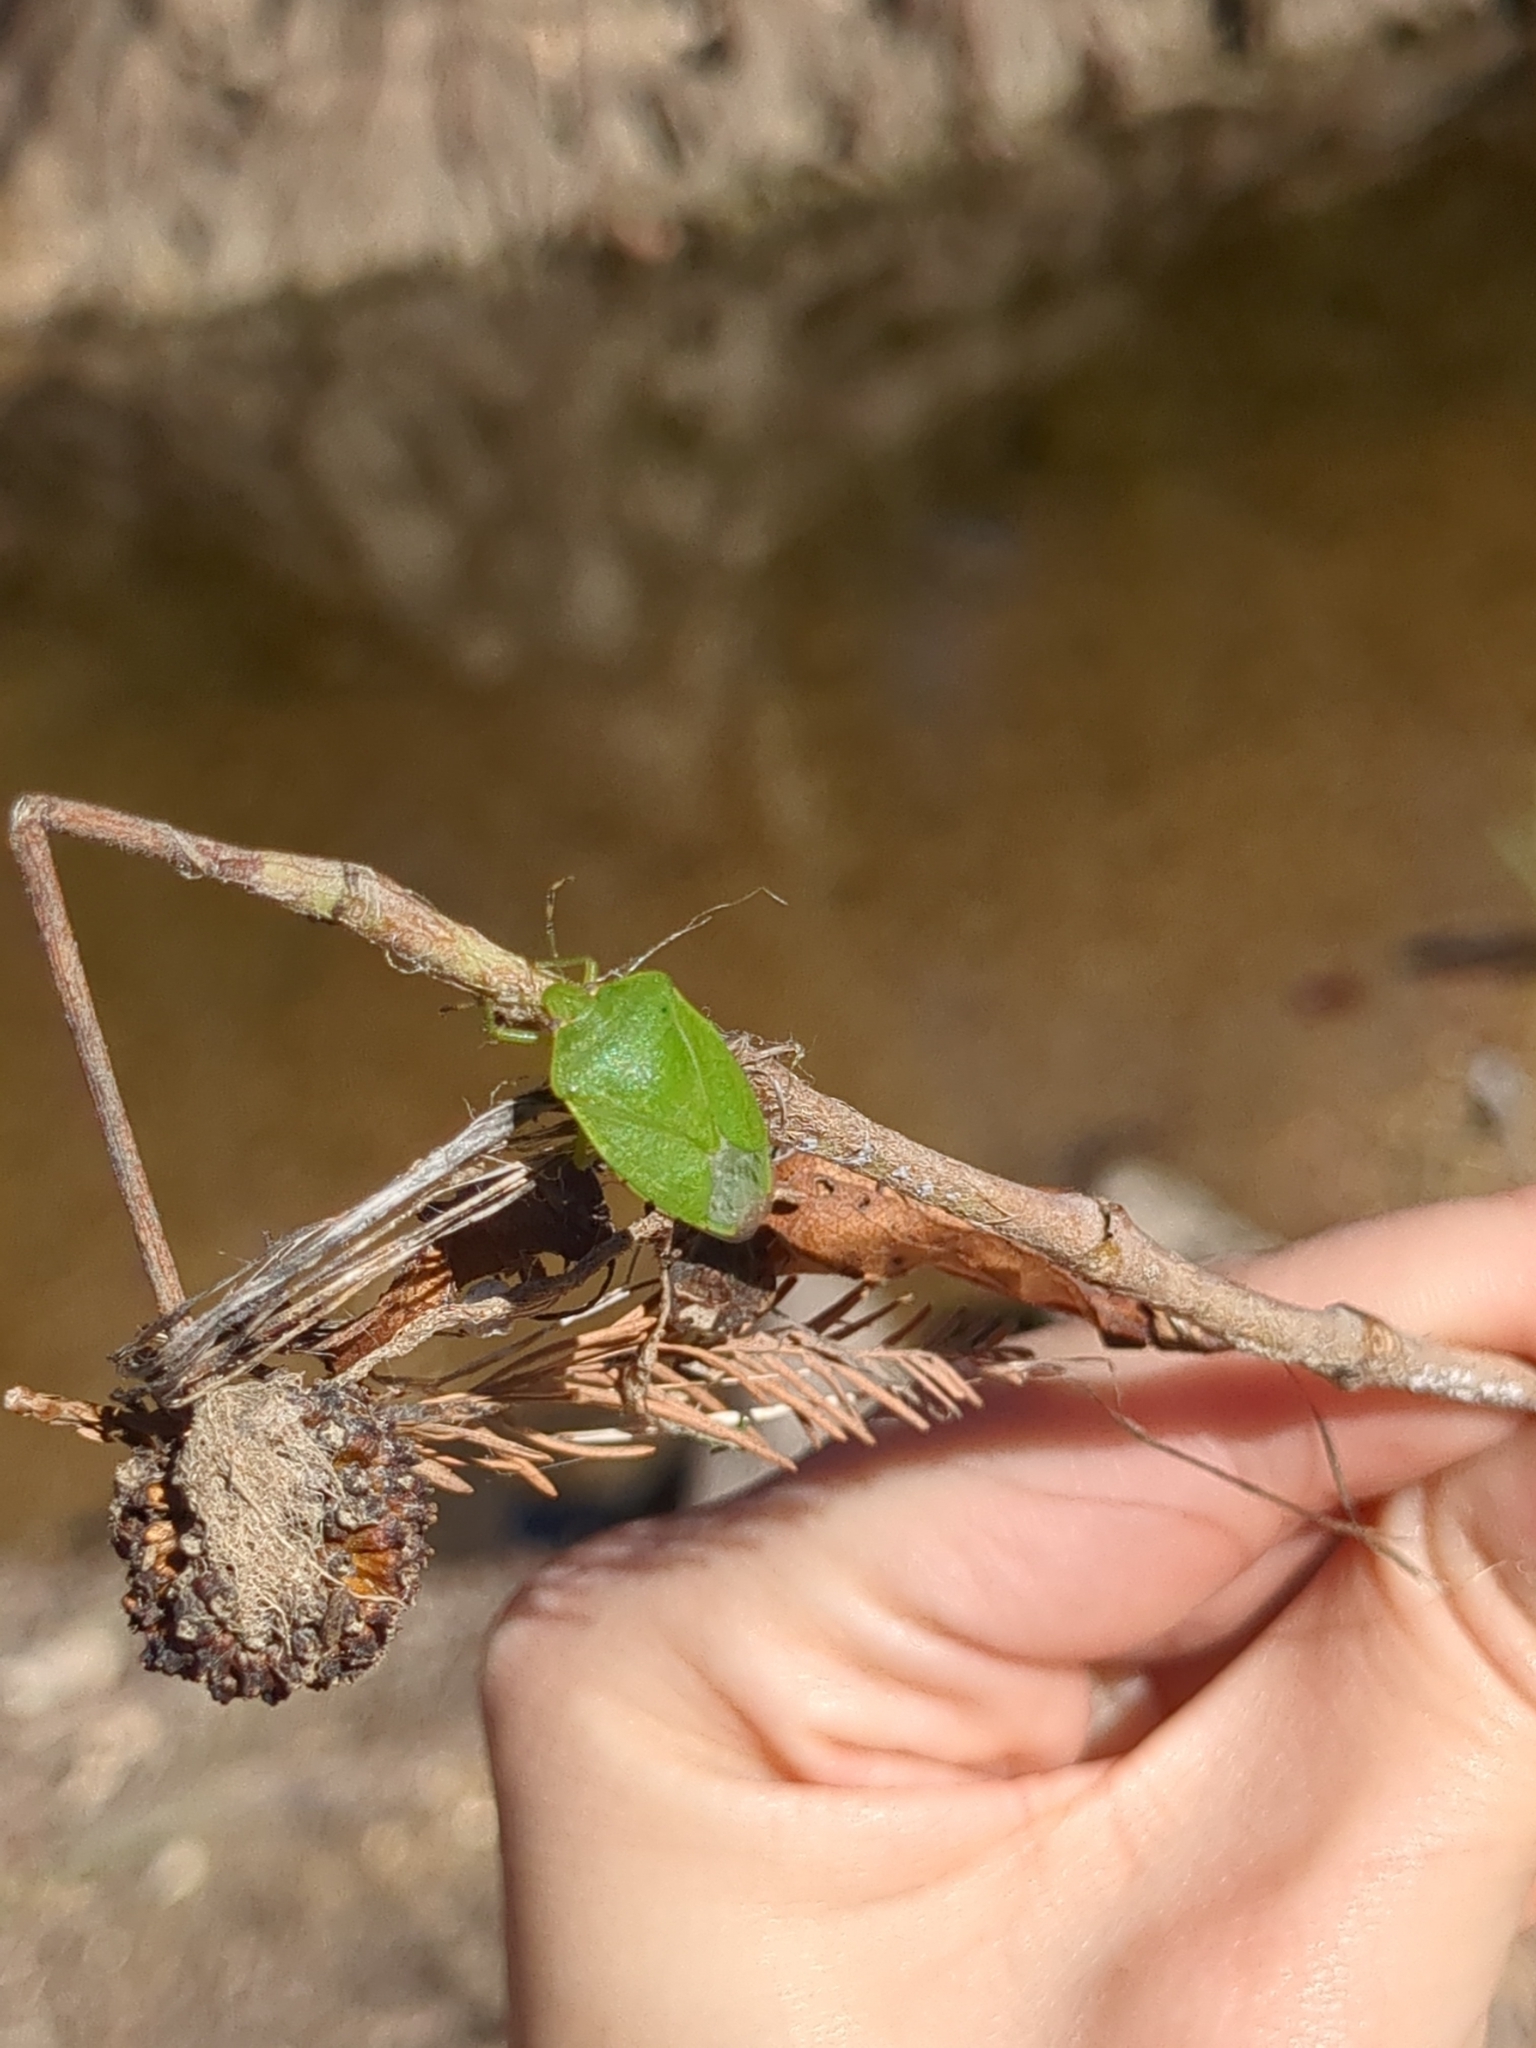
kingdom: Animalia
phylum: Arthropoda
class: Insecta
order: Hemiptera
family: Pentatomidae
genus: Chinavia
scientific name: Chinavia hilaris
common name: Green stink bug
